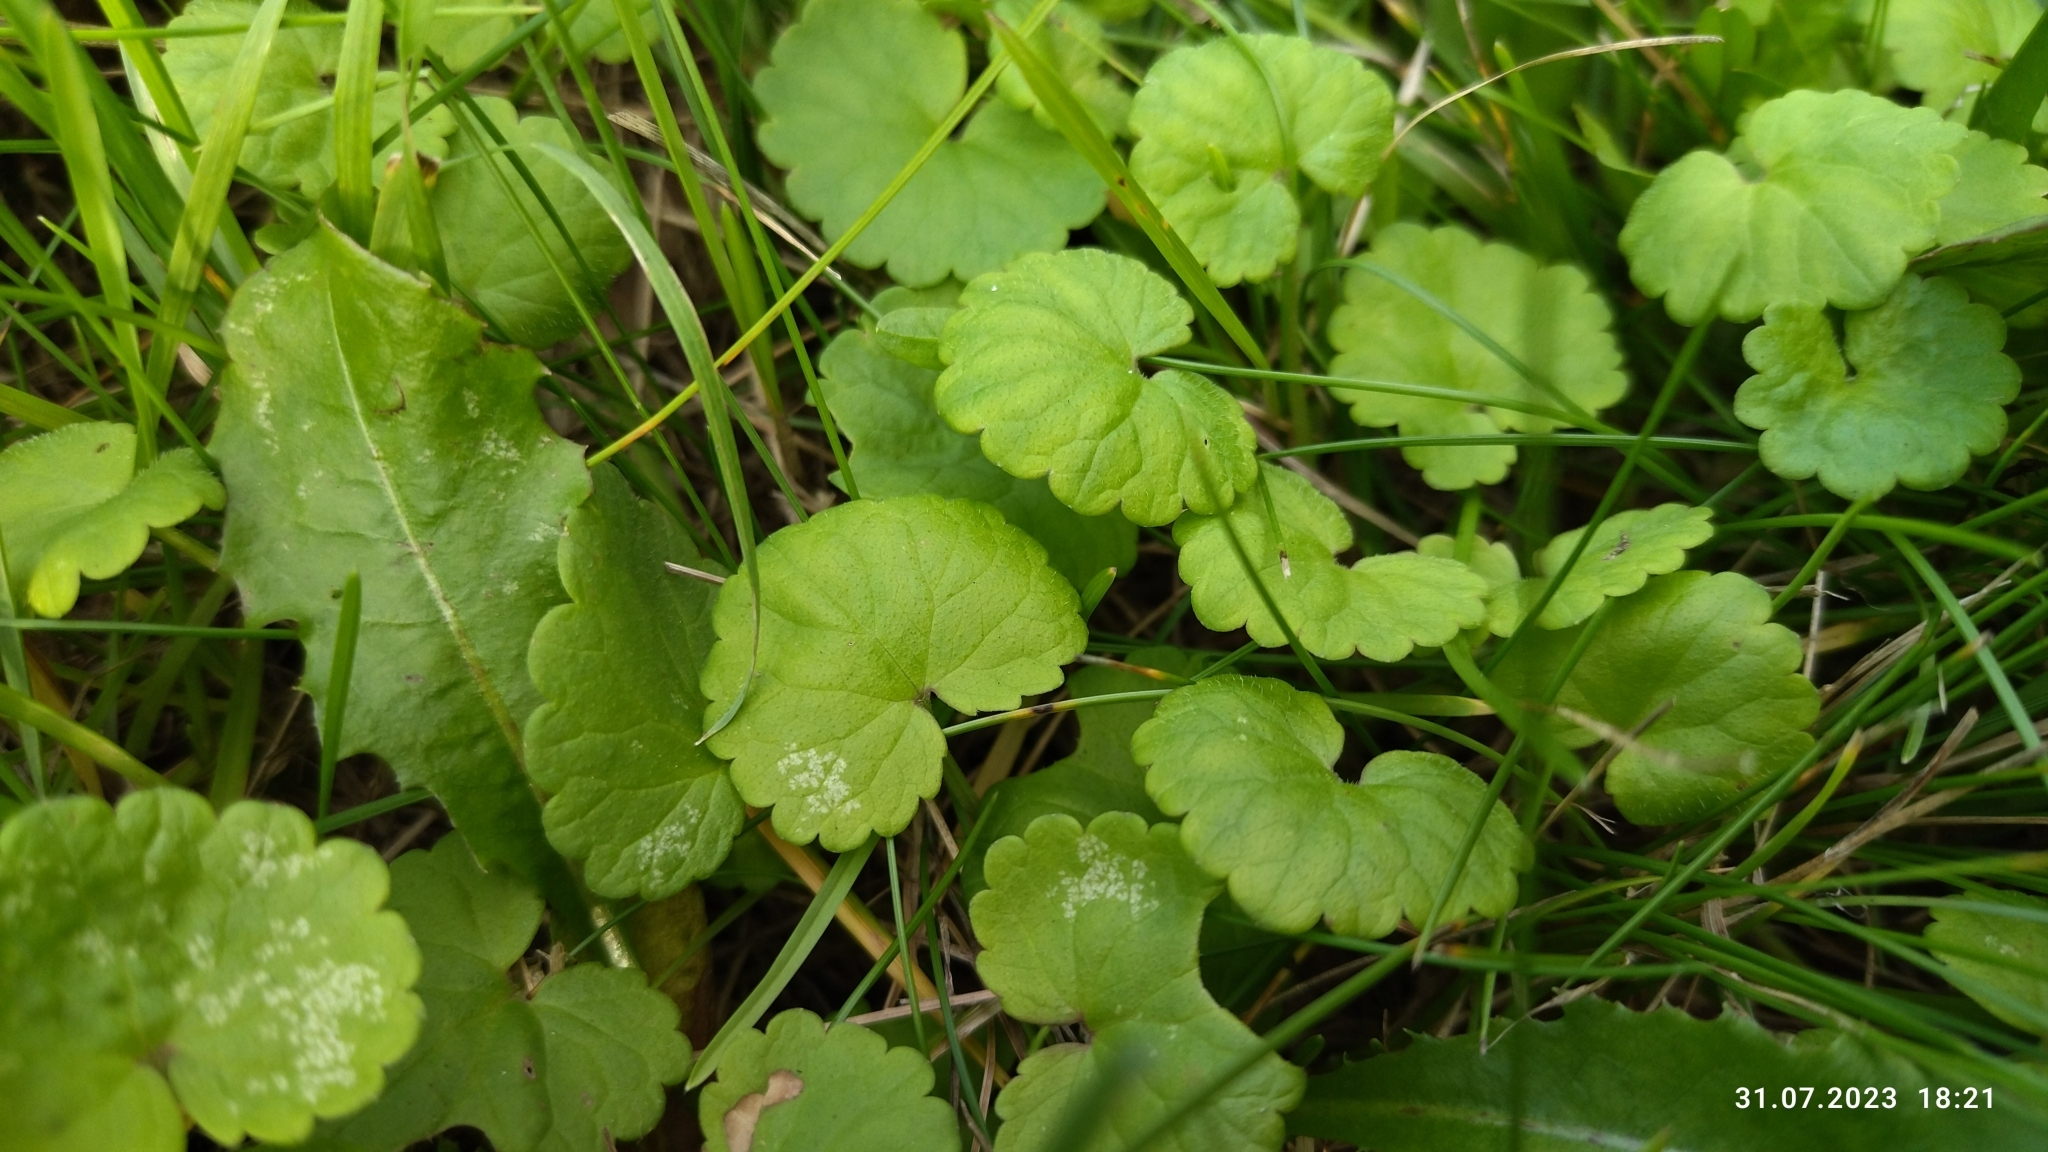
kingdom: Plantae
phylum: Tracheophyta
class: Magnoliopsida
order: Lamiales
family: Lamiaceae
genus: Glechoma
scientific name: Glechoma hederacea
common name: Ground ivy
